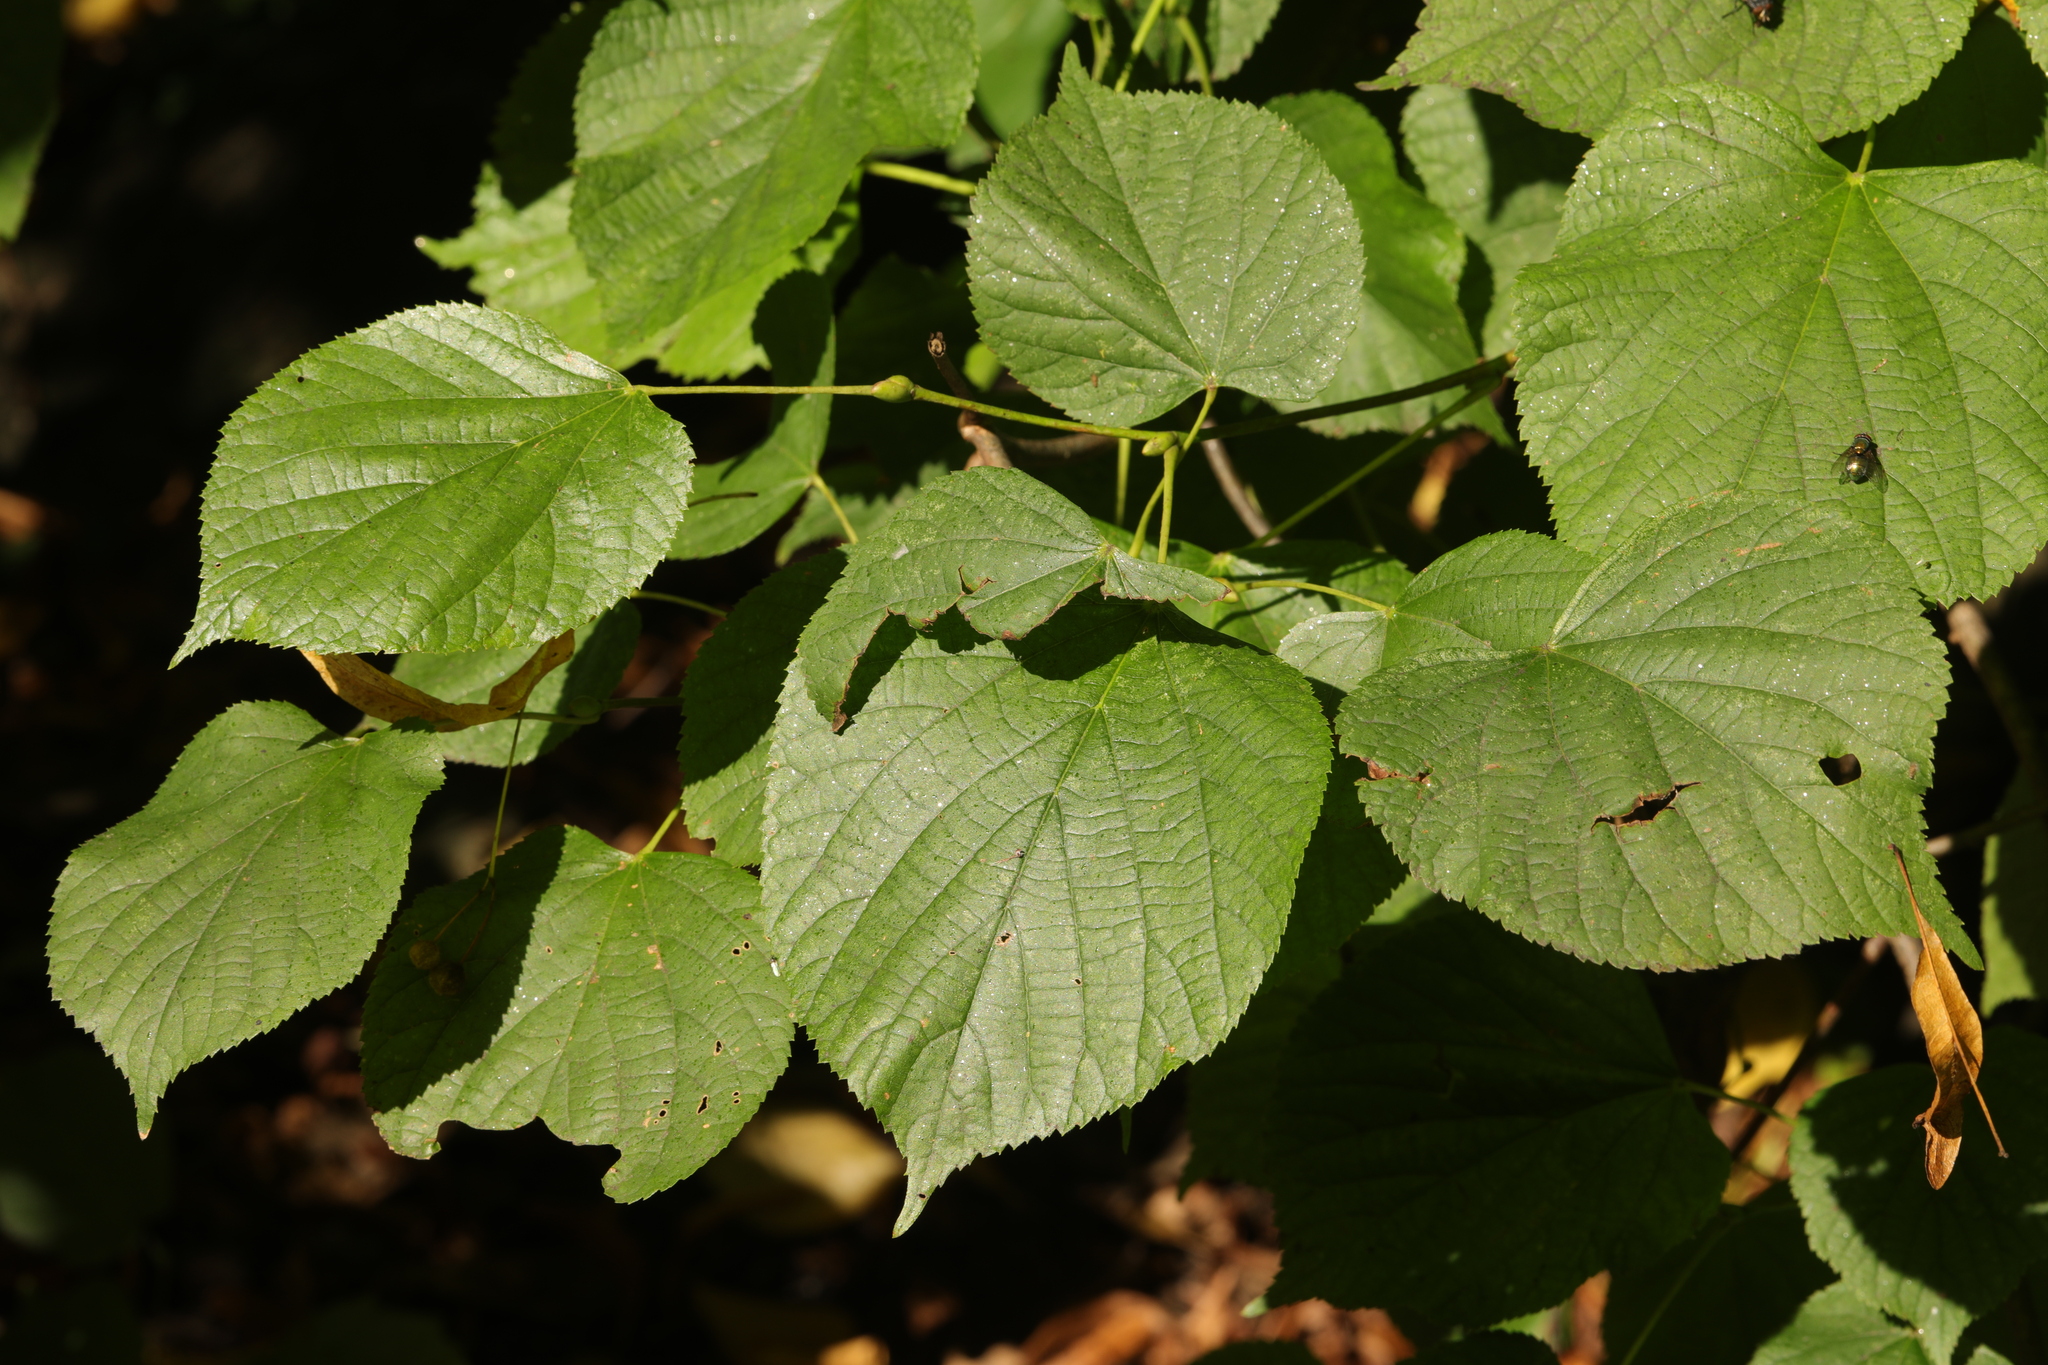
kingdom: Plantae
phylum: Tracheophyta
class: Magnoliopsida
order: Malvales
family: Malvaceae
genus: Tilia
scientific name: Tilia europaea
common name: European linden
